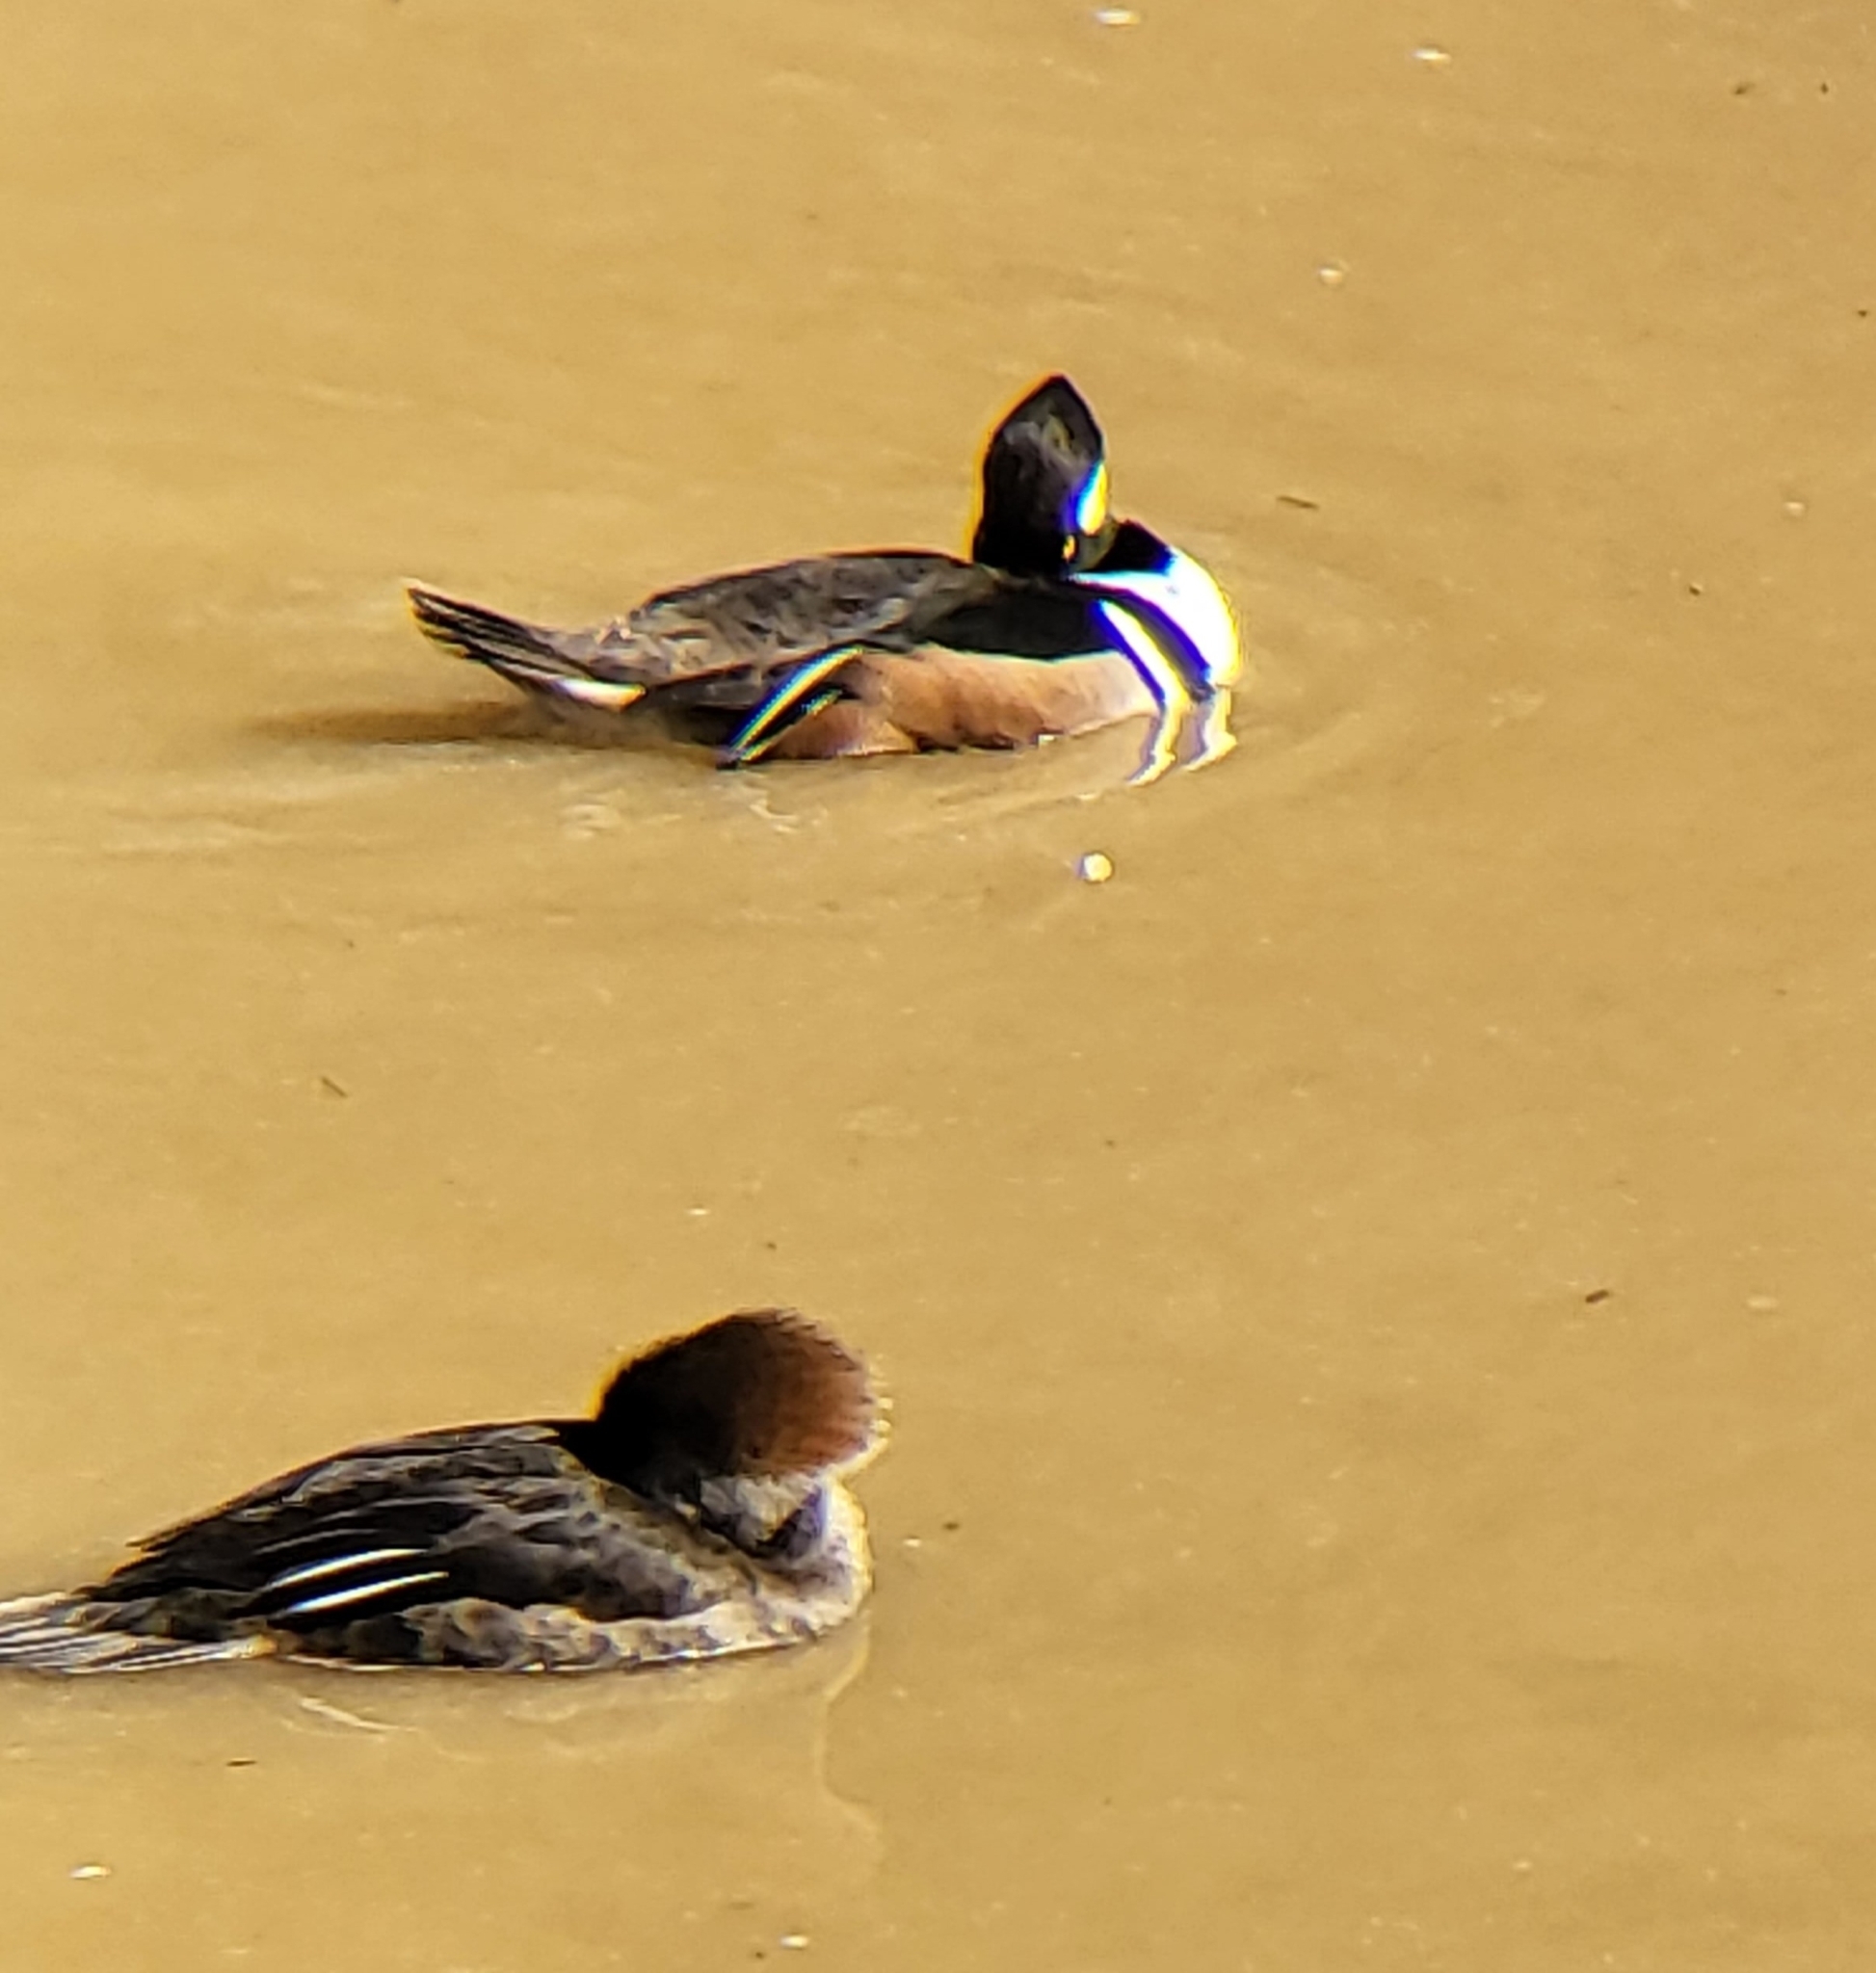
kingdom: Animalia
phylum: Chordata
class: Aves
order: Anseriformes
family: Anatidae
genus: Lophodytes
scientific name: Lophodytes cucullatus
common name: Hooded merganser
